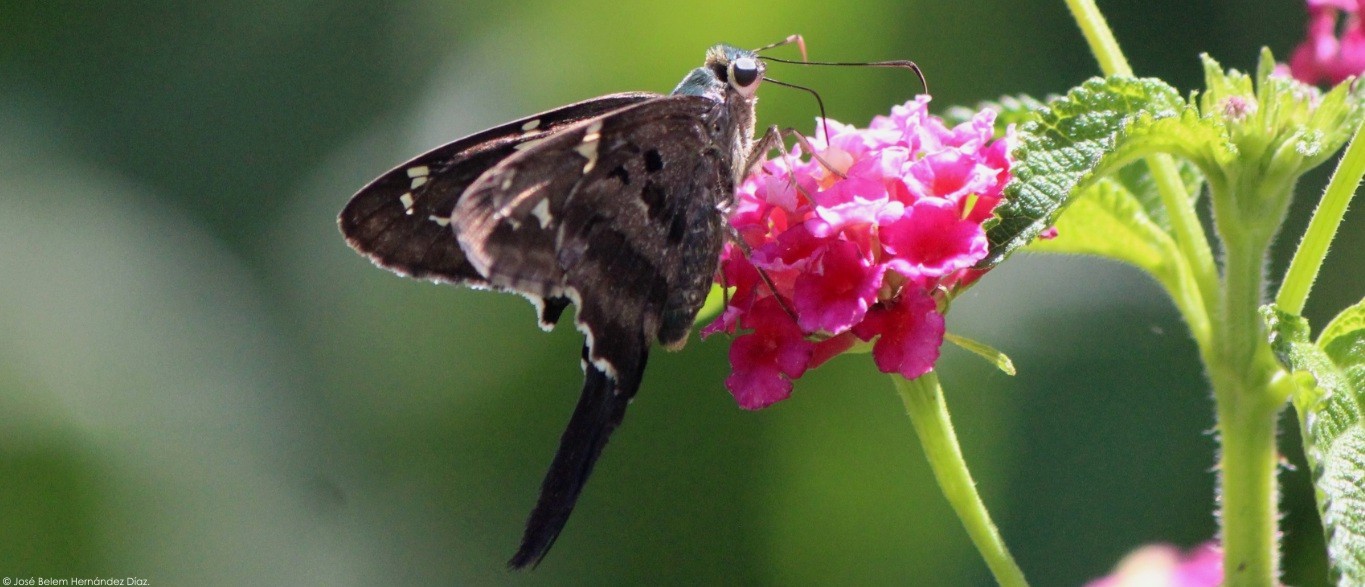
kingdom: Animalia
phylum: Arthropoda
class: Insecta
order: Lepidoptera
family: Hesperiidae
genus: Urbanus
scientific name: Urbanus proteus
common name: Long-tailed skipper
